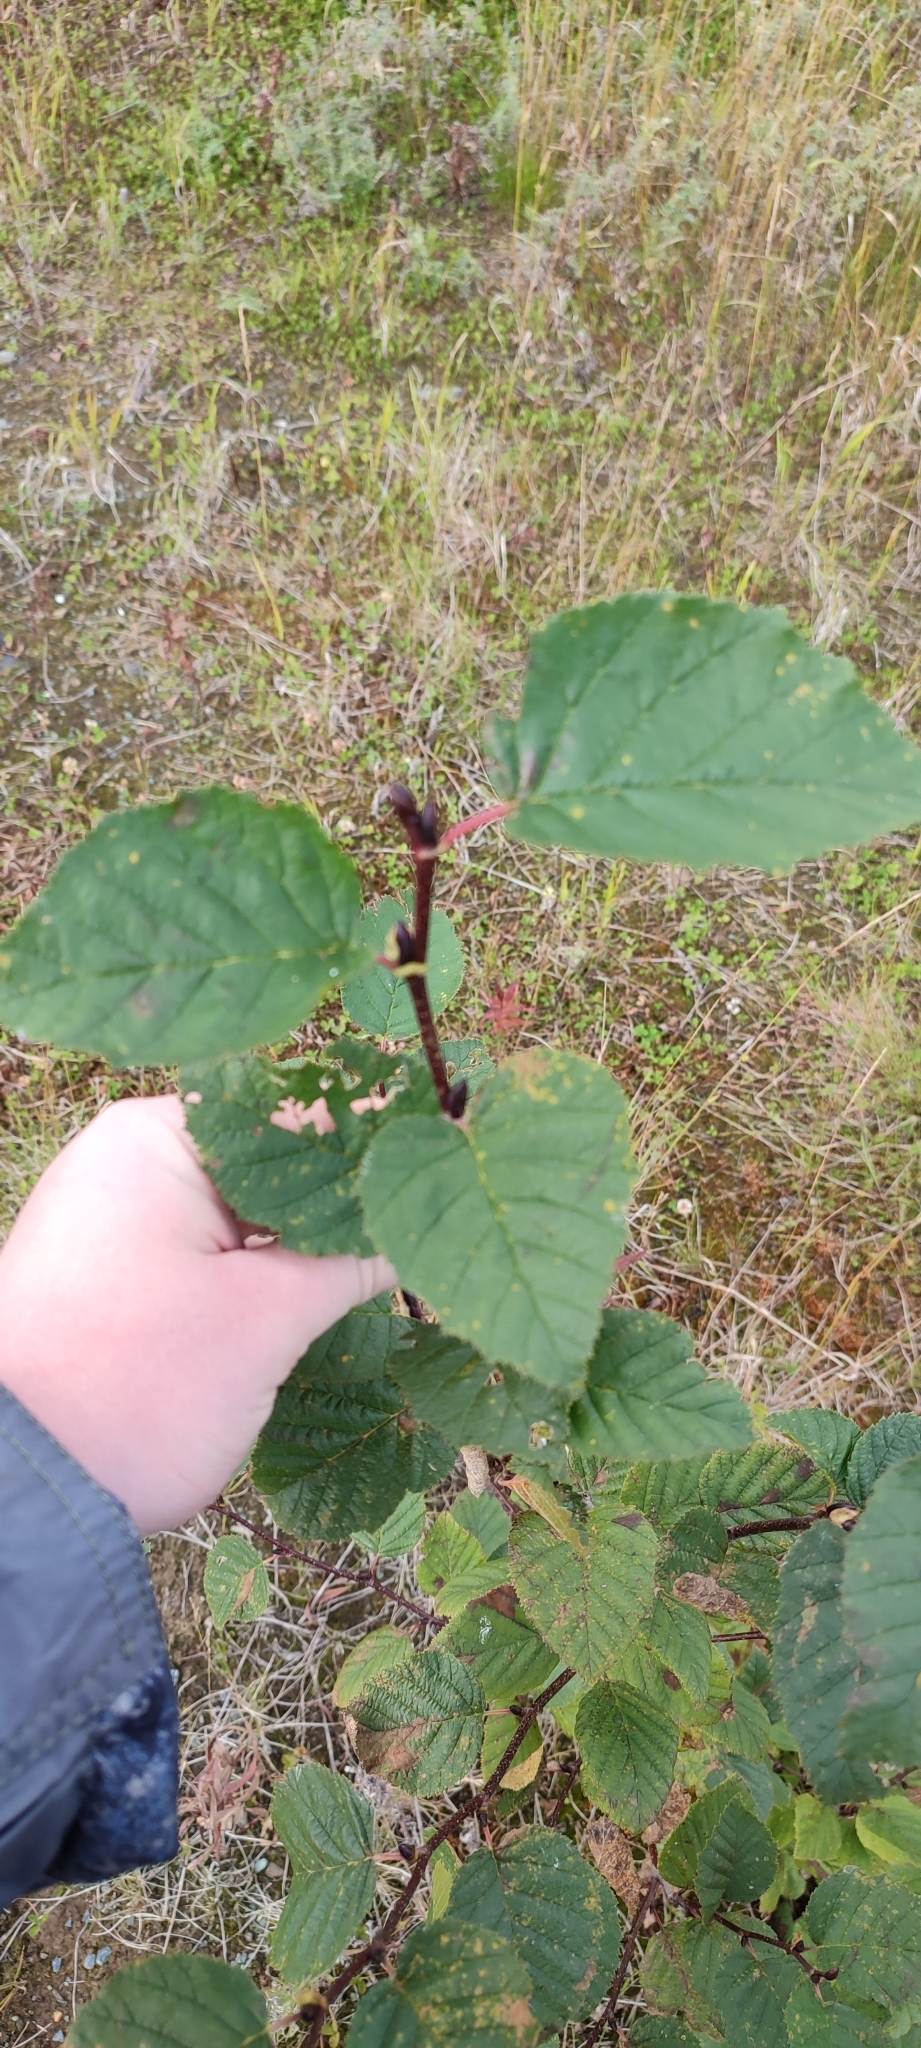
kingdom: Plantae
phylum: Tracheophyta
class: Magnoliopsida
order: Fagales
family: Betulaceae
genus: Alnus
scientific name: Alnus alnobetula
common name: Green alder
